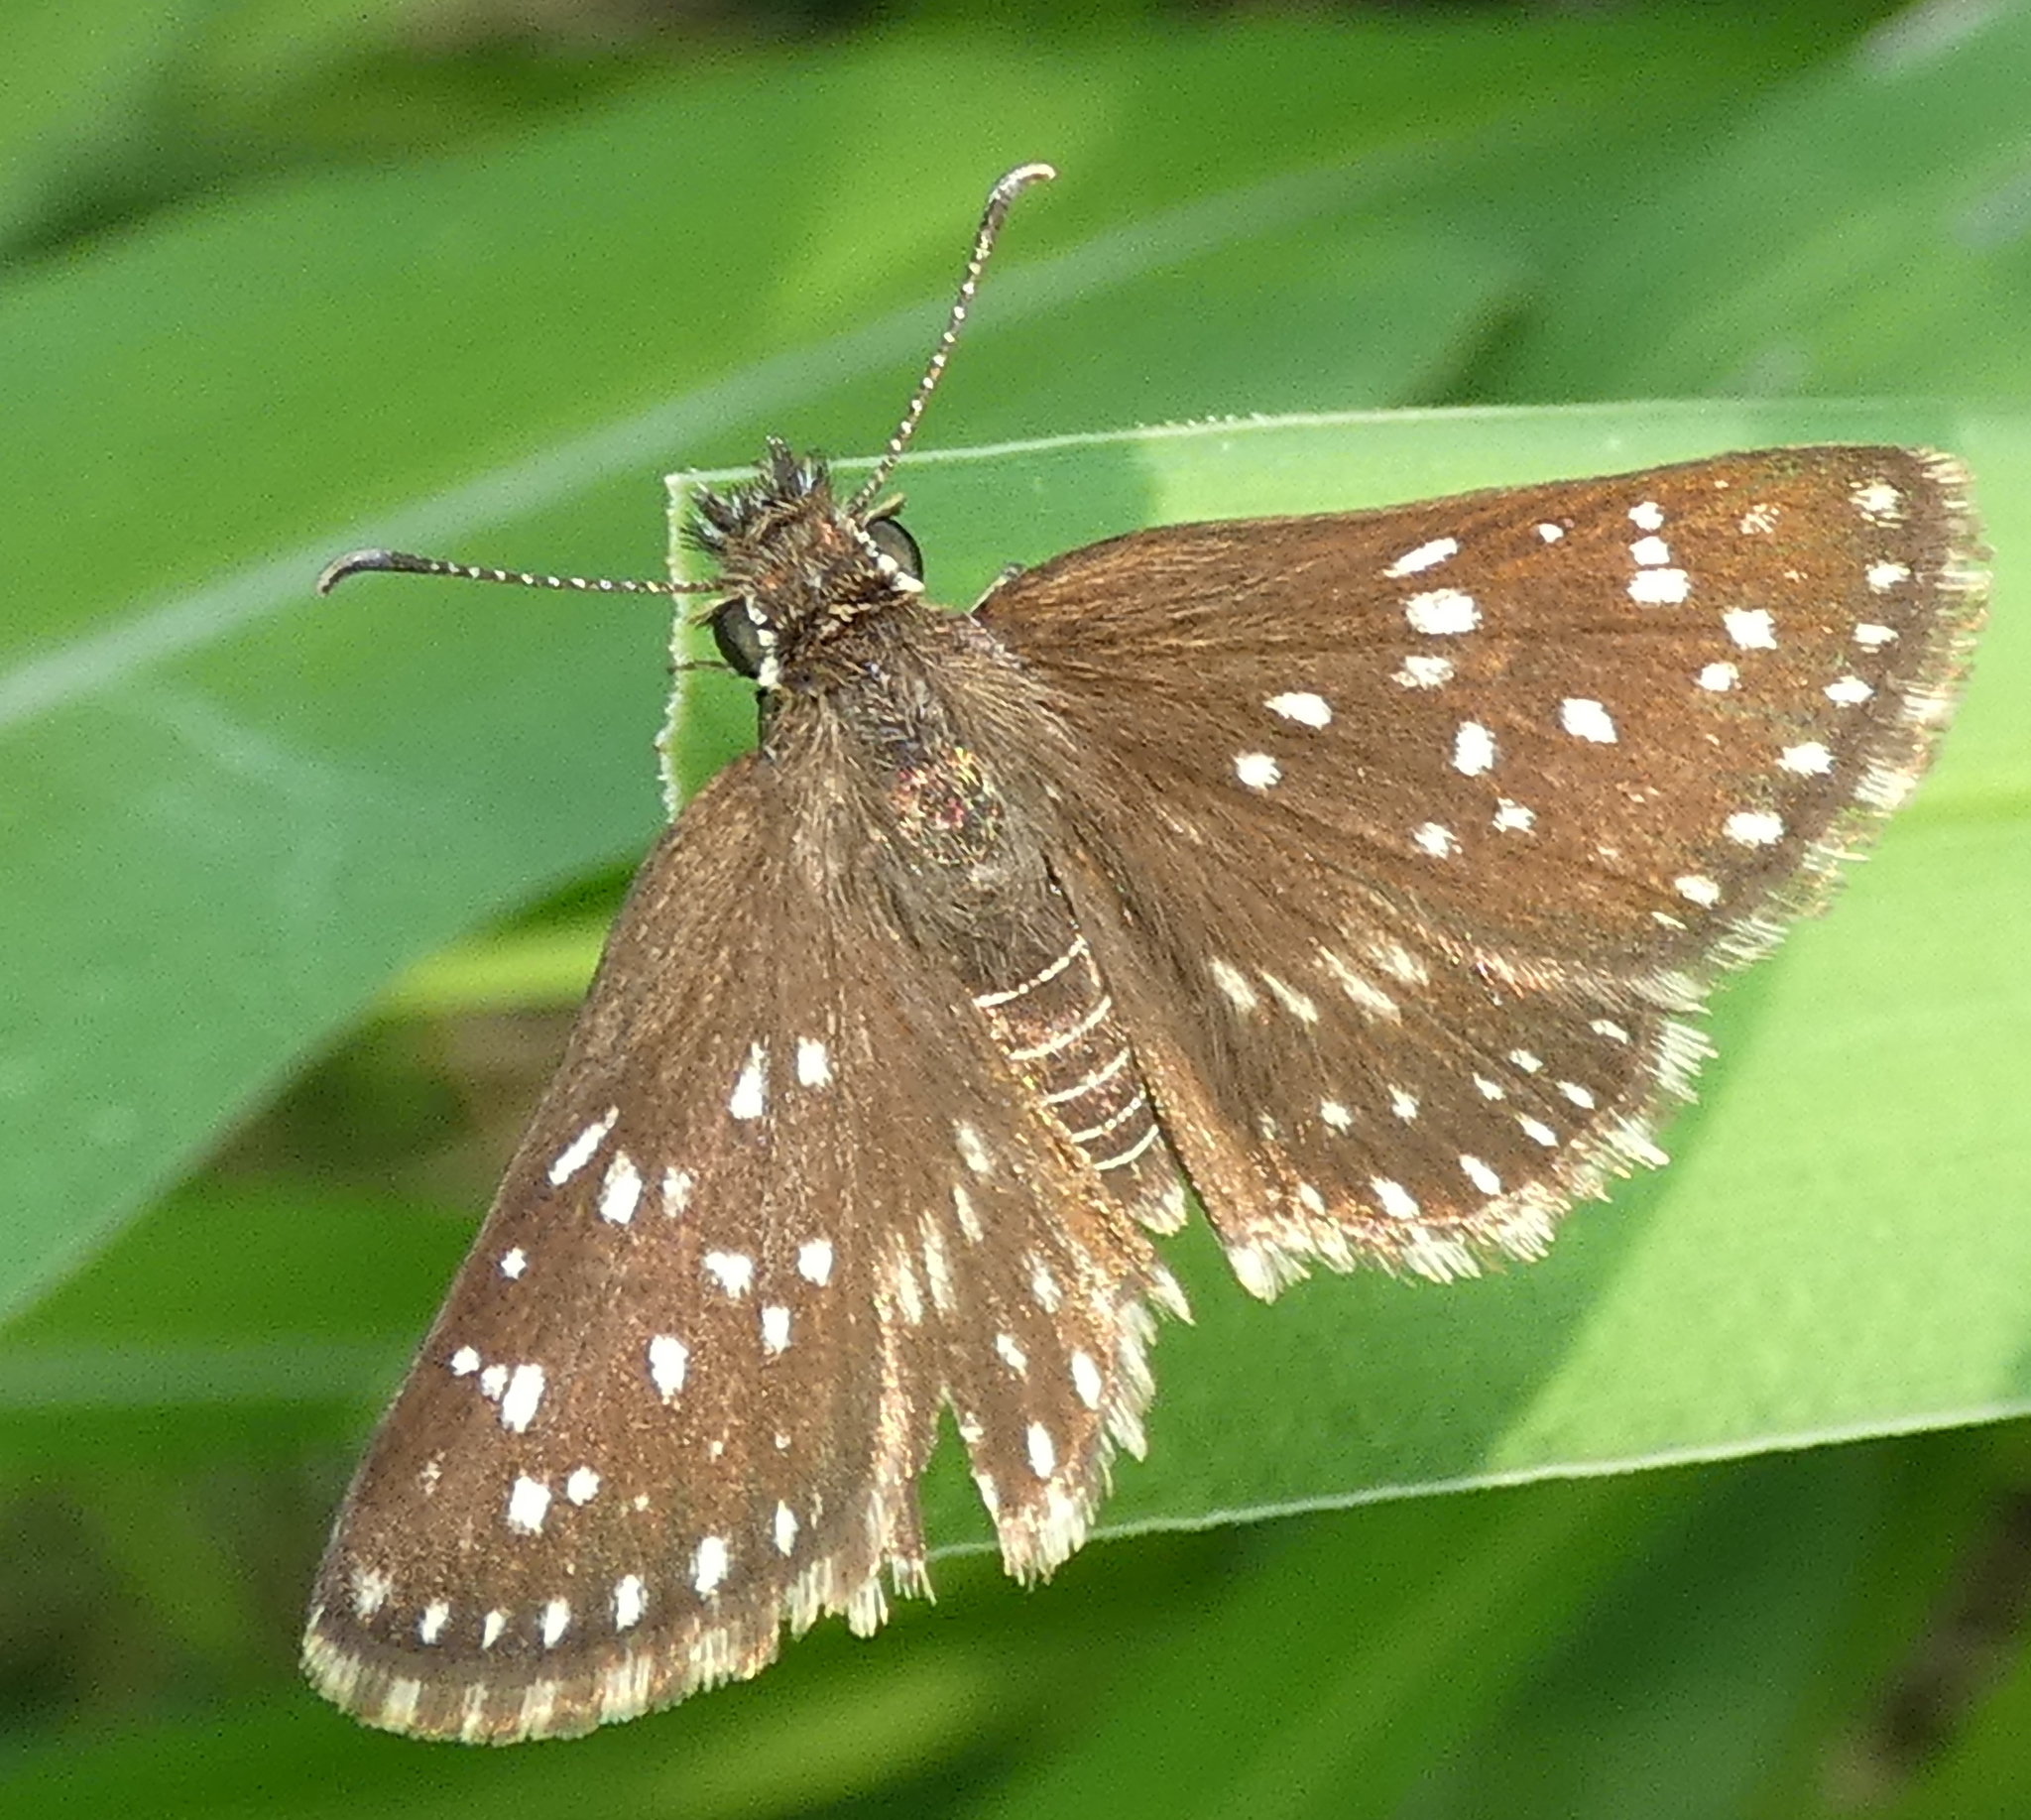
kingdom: Animalia
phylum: Arthropoda
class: Insecta
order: Lepidoptera
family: Hesperiidae
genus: Chirgus
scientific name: Chirgus
